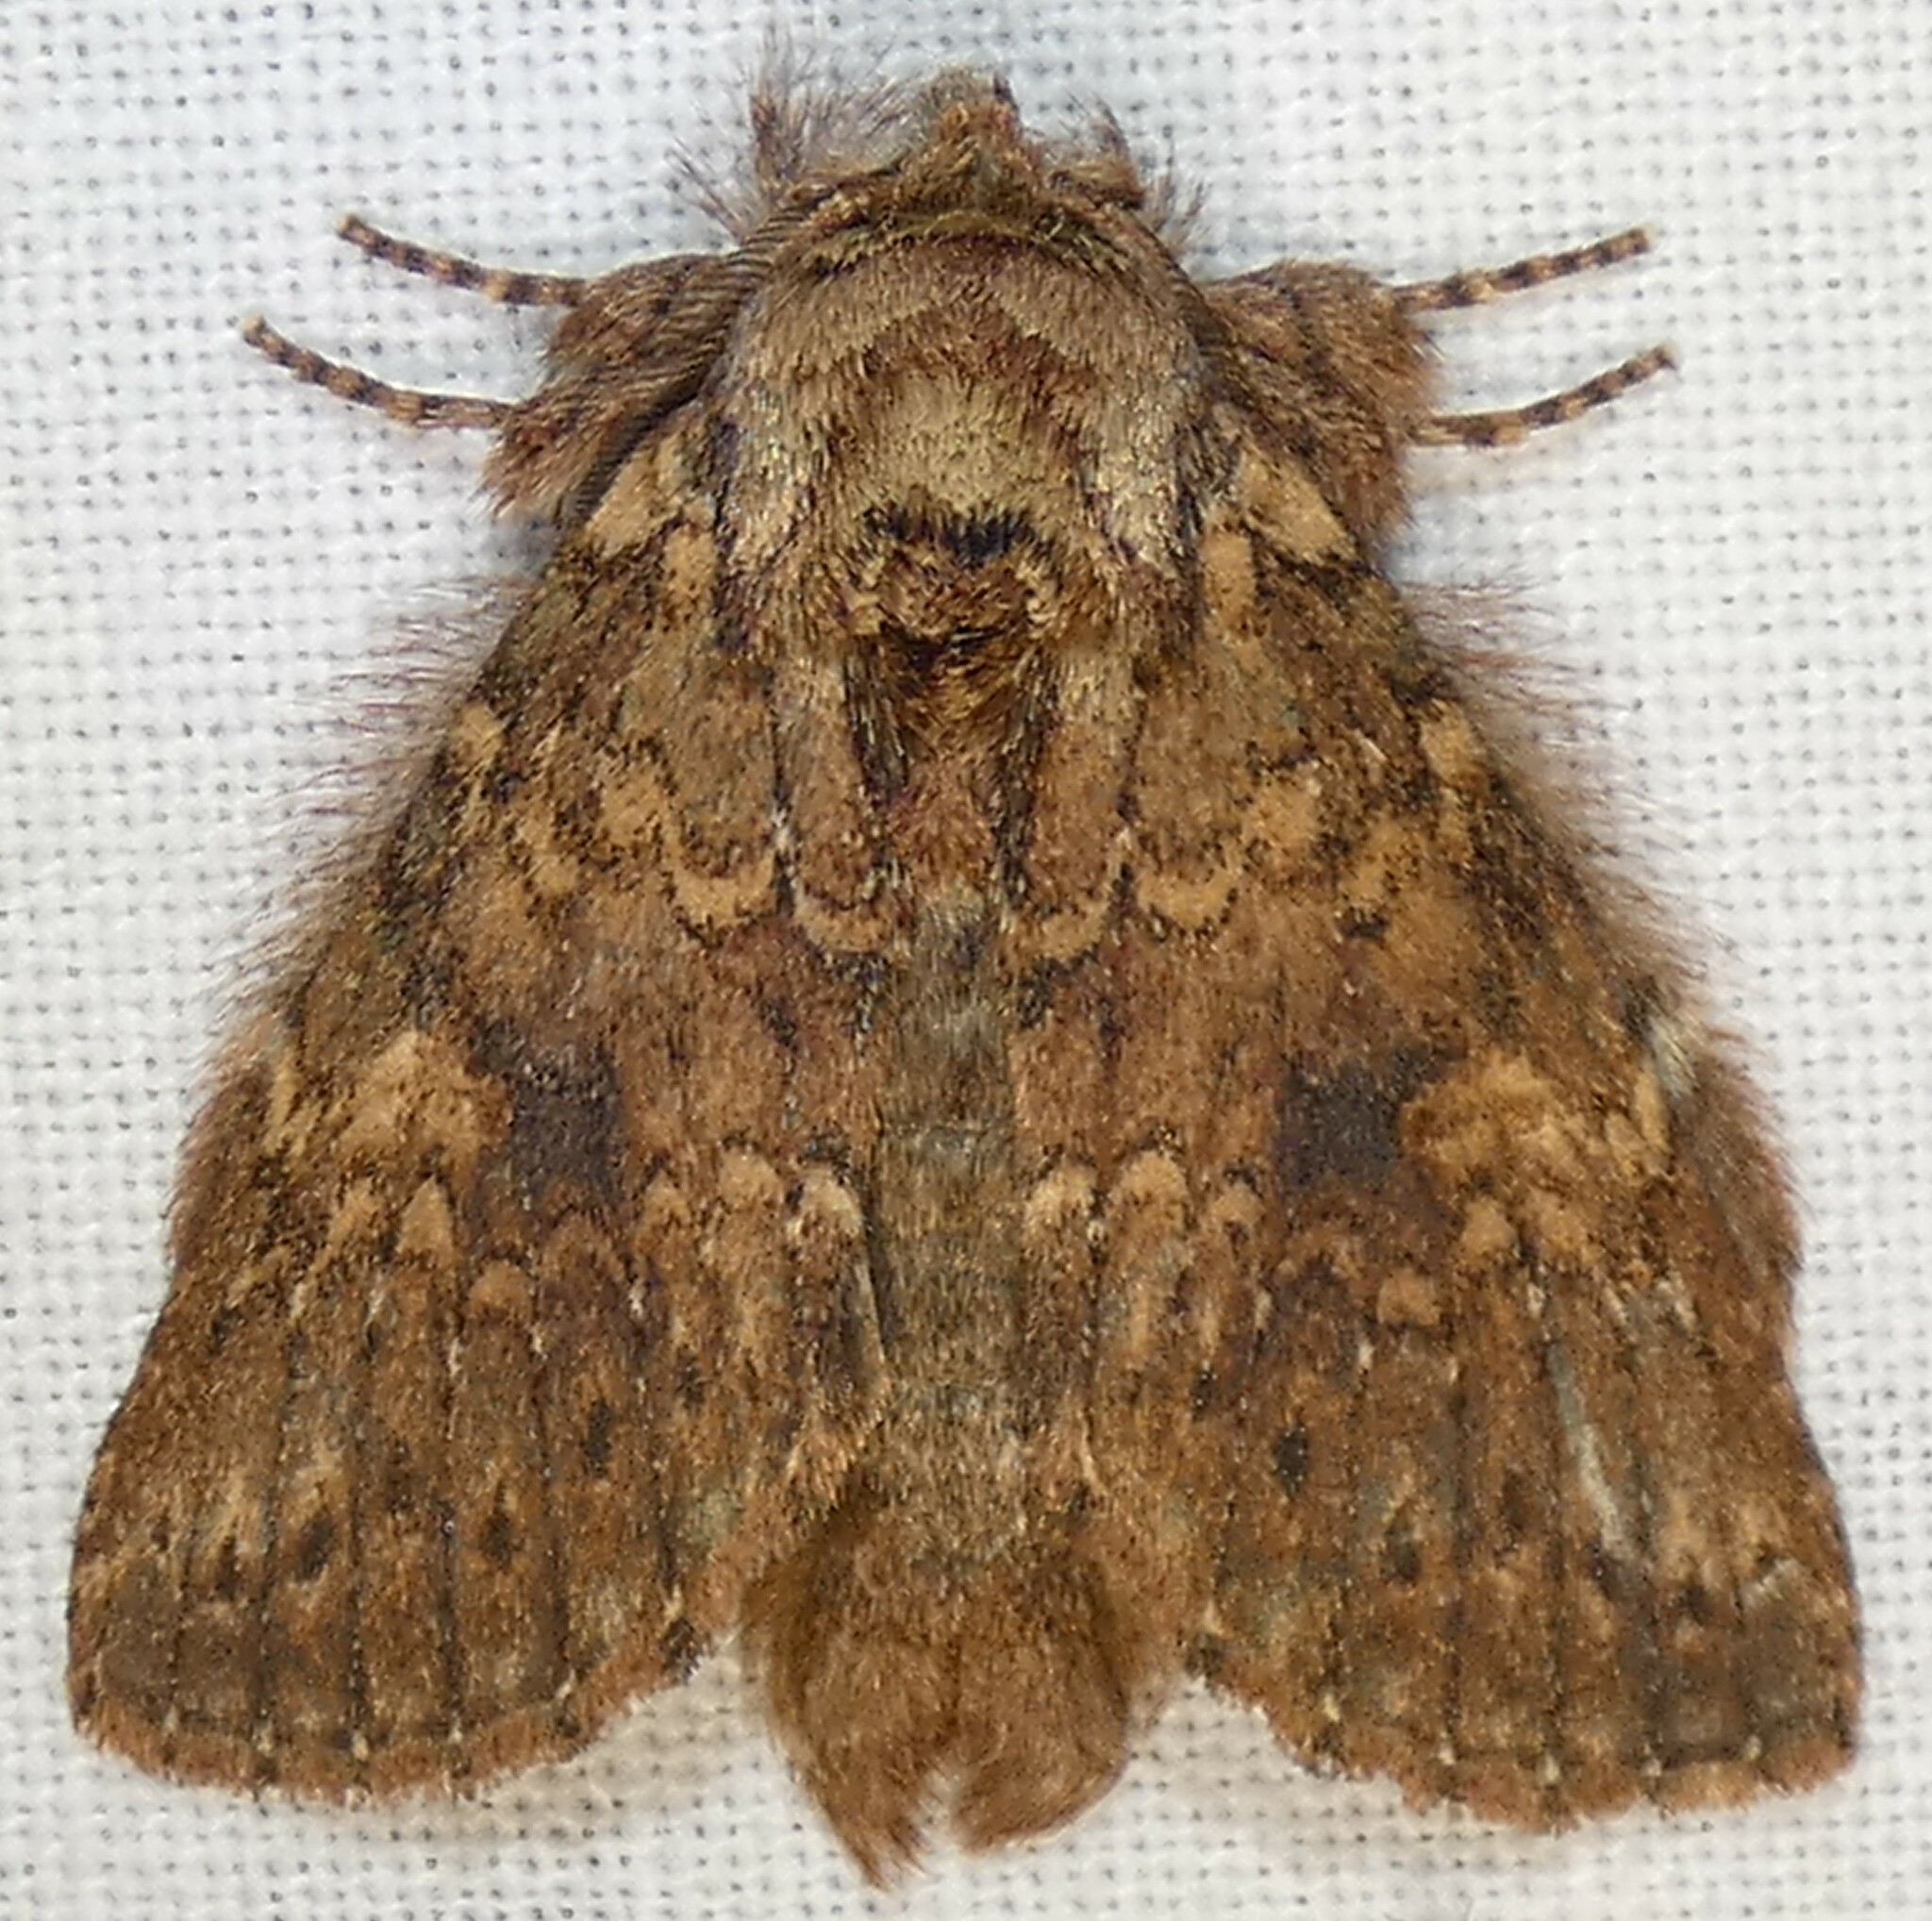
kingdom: Animalia
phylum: Arthropoda
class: Insecta
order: Lepidoptera
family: Notodontidae
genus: Disphragis
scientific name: Disphragis Cecrita biundata
